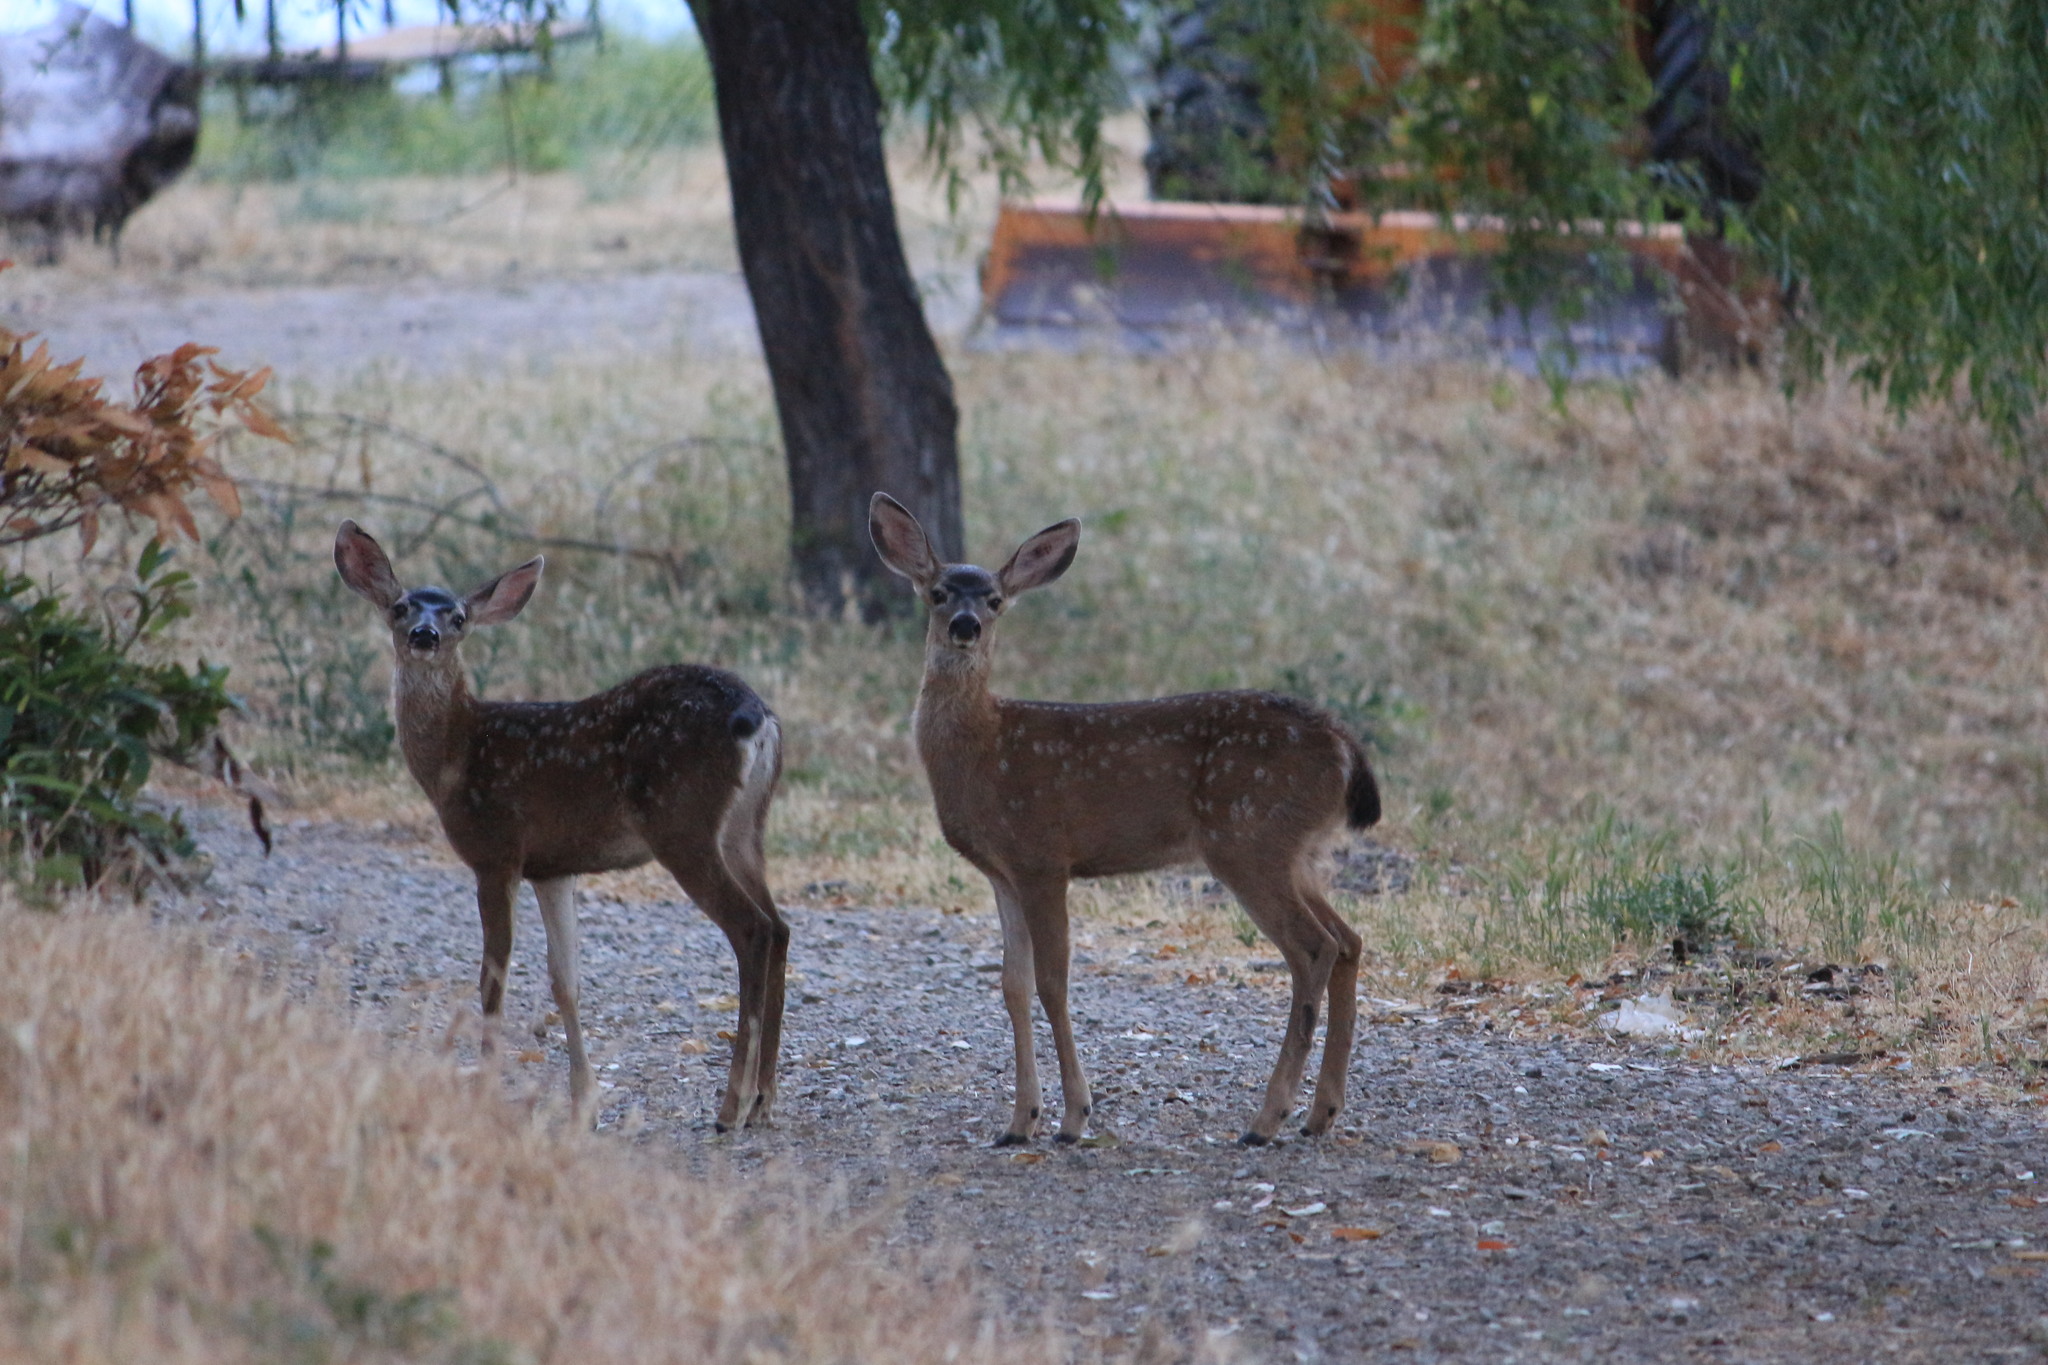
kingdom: Animalia
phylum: Chordata
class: Mammalia
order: Artiodactyla
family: Cervidae
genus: Odocoileus
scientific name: Odocoileus hemionus
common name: Mule deer
